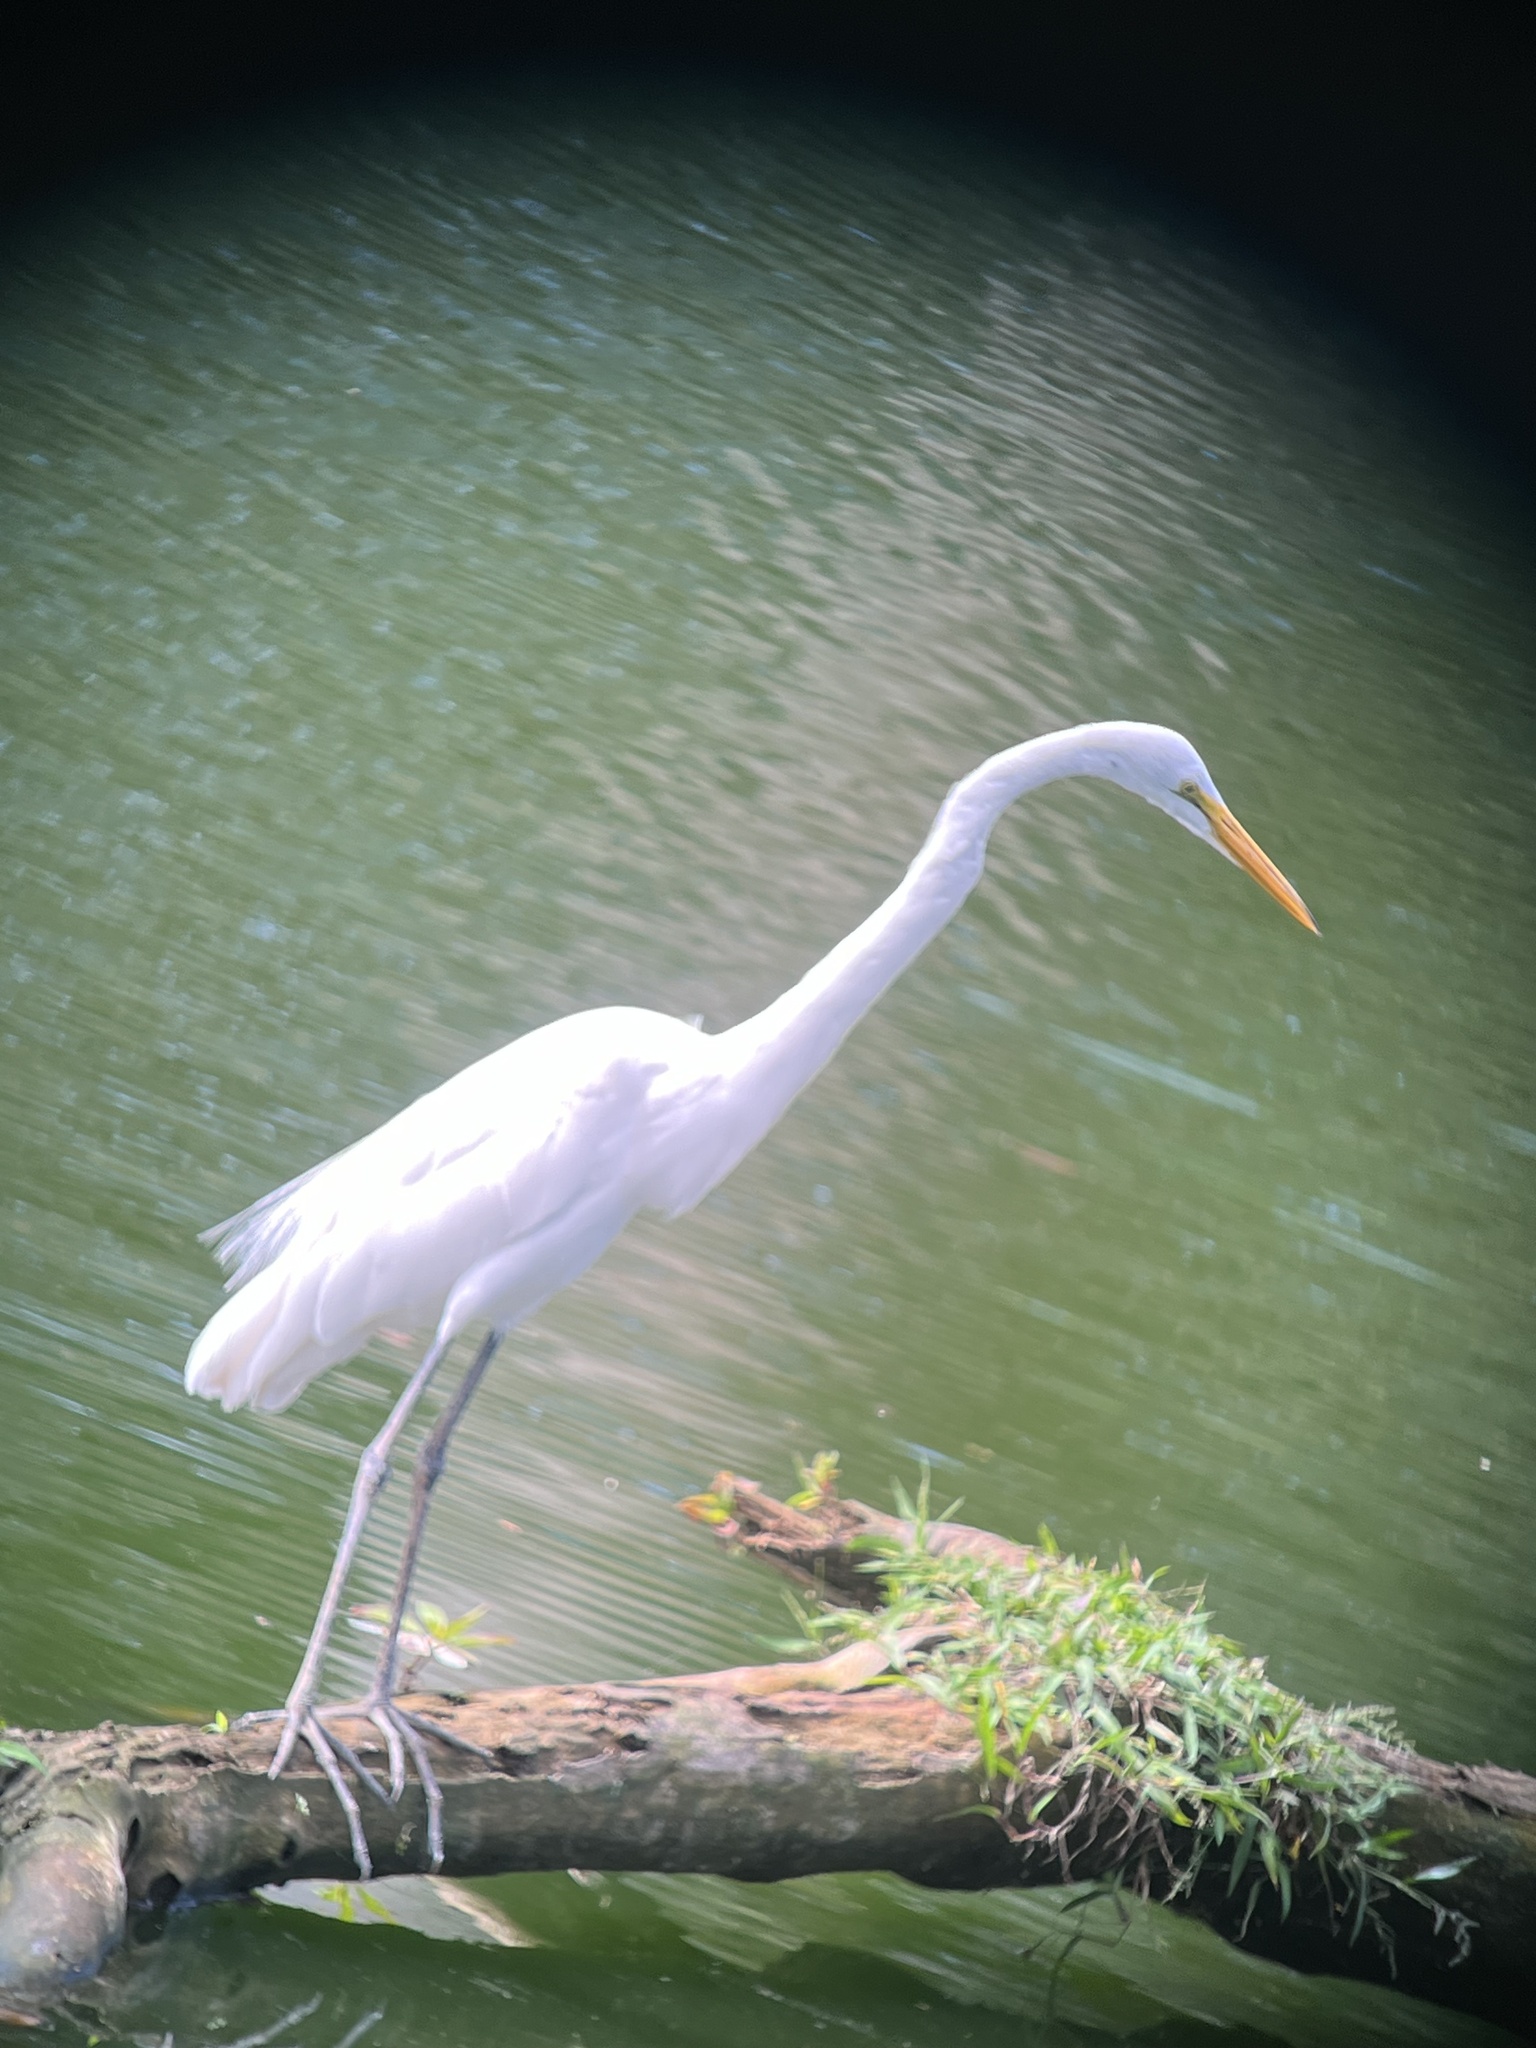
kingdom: Animalia
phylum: Chordata
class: Aves
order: Pelecaniformes
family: Ardeidae
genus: Ardea
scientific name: Ardea alba
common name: Great egret
